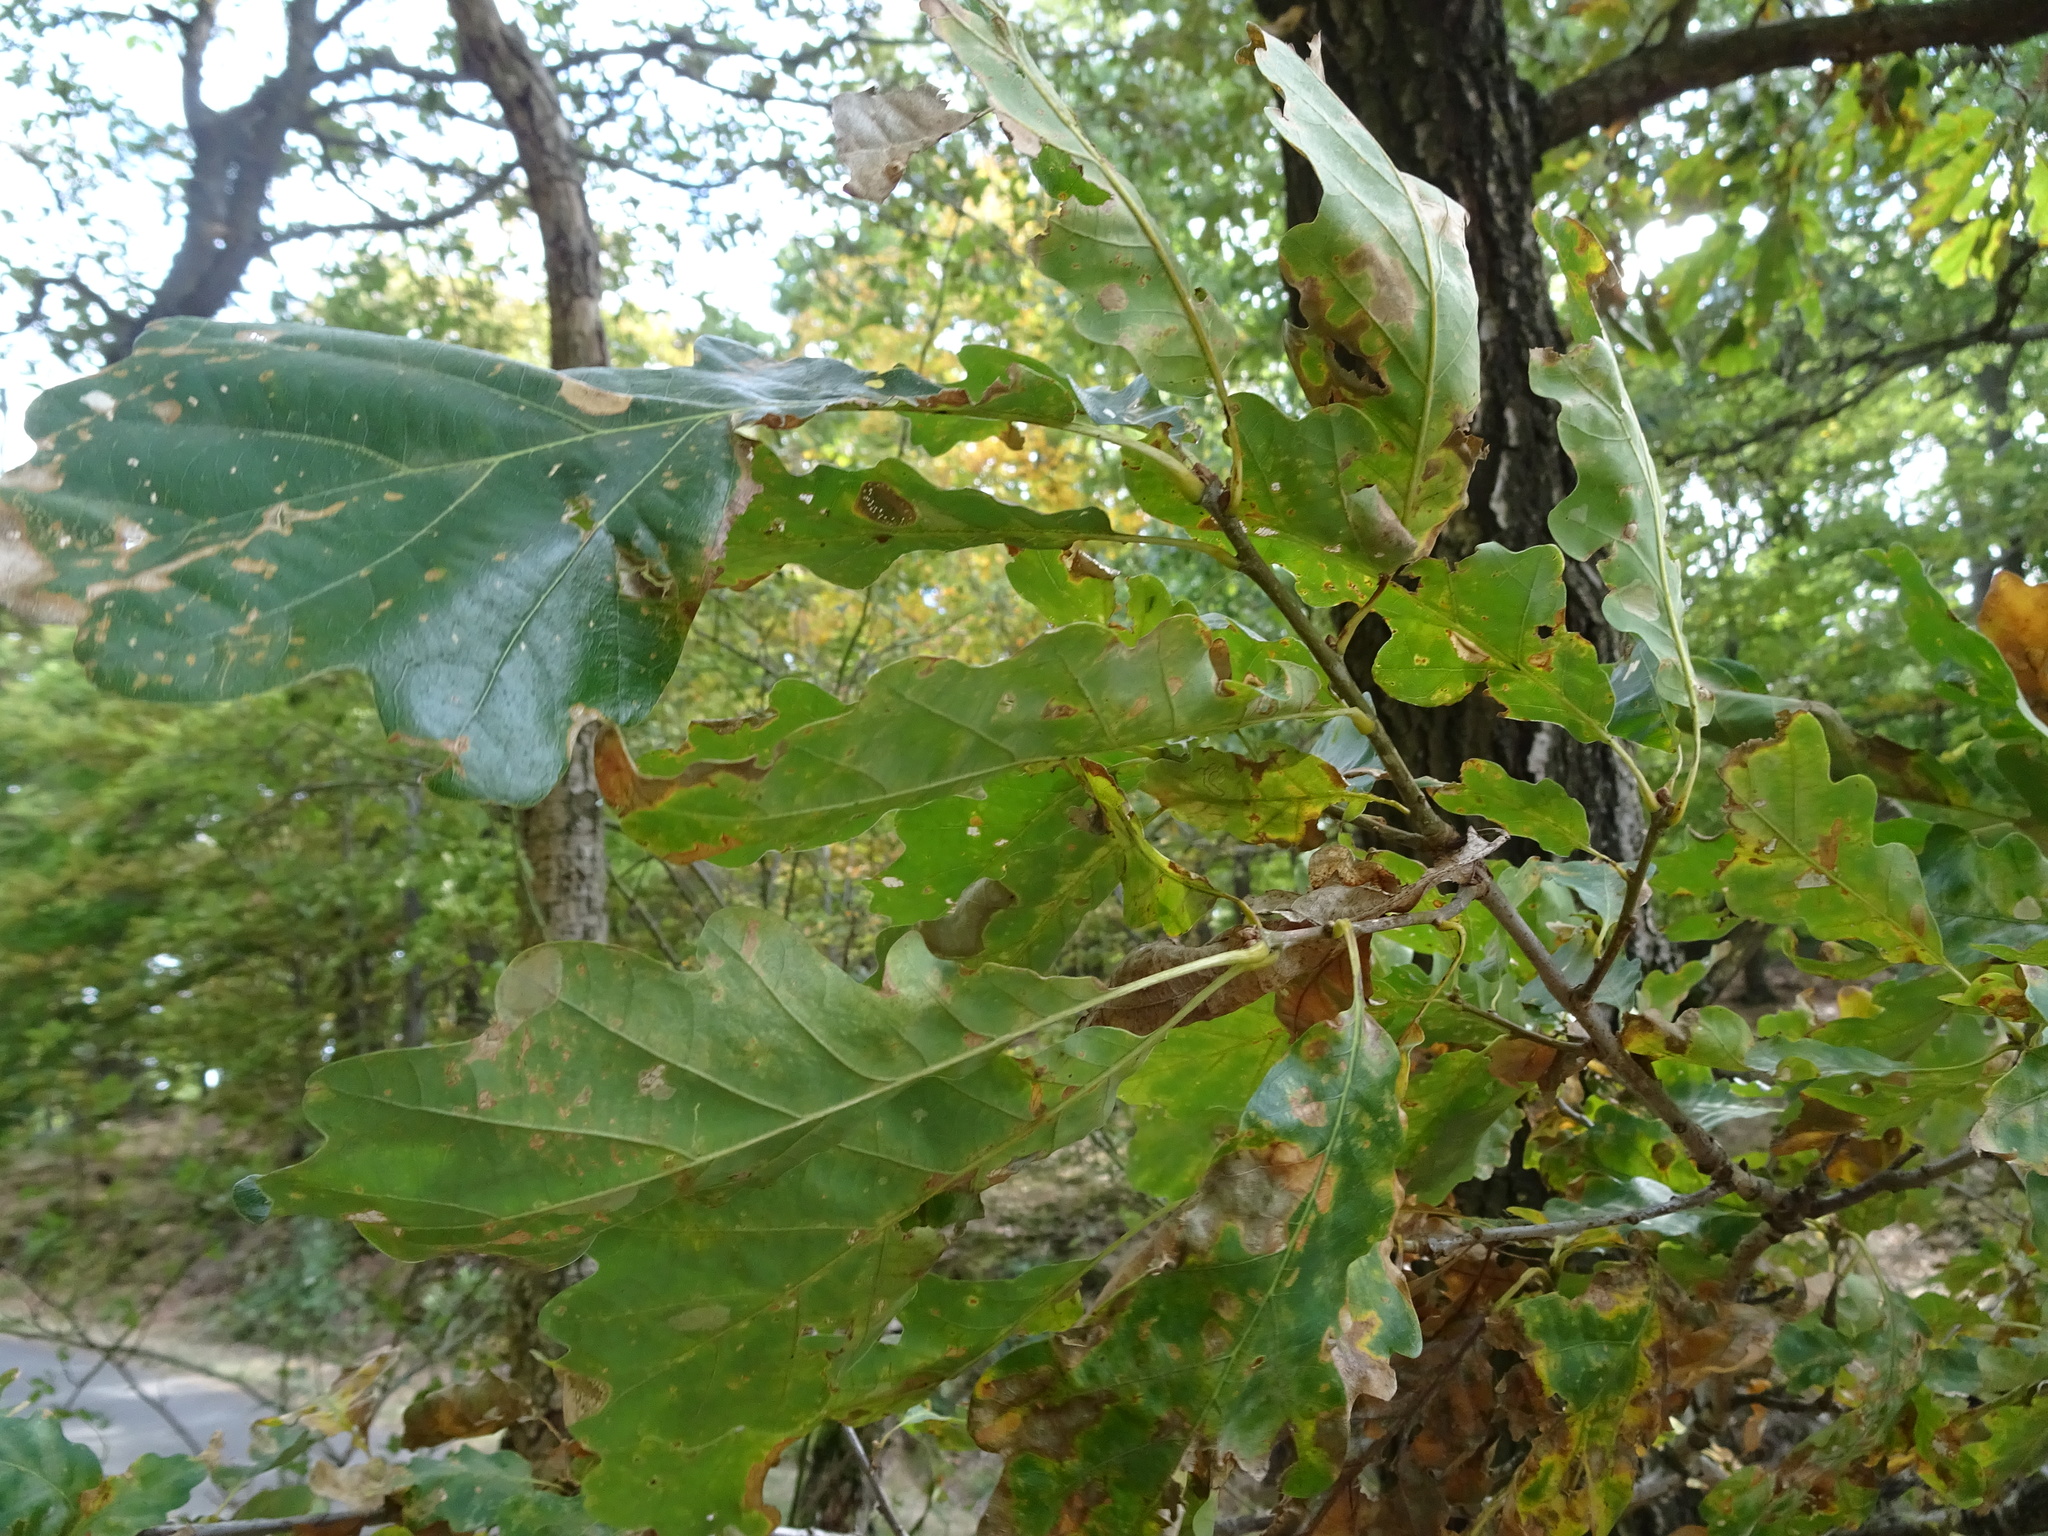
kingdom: Plantae
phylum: Tracheophyta
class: Magnoliopsida
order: Fagales
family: Fagaceae
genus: Quercus
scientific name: Quercus petraea
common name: Sessile oak
